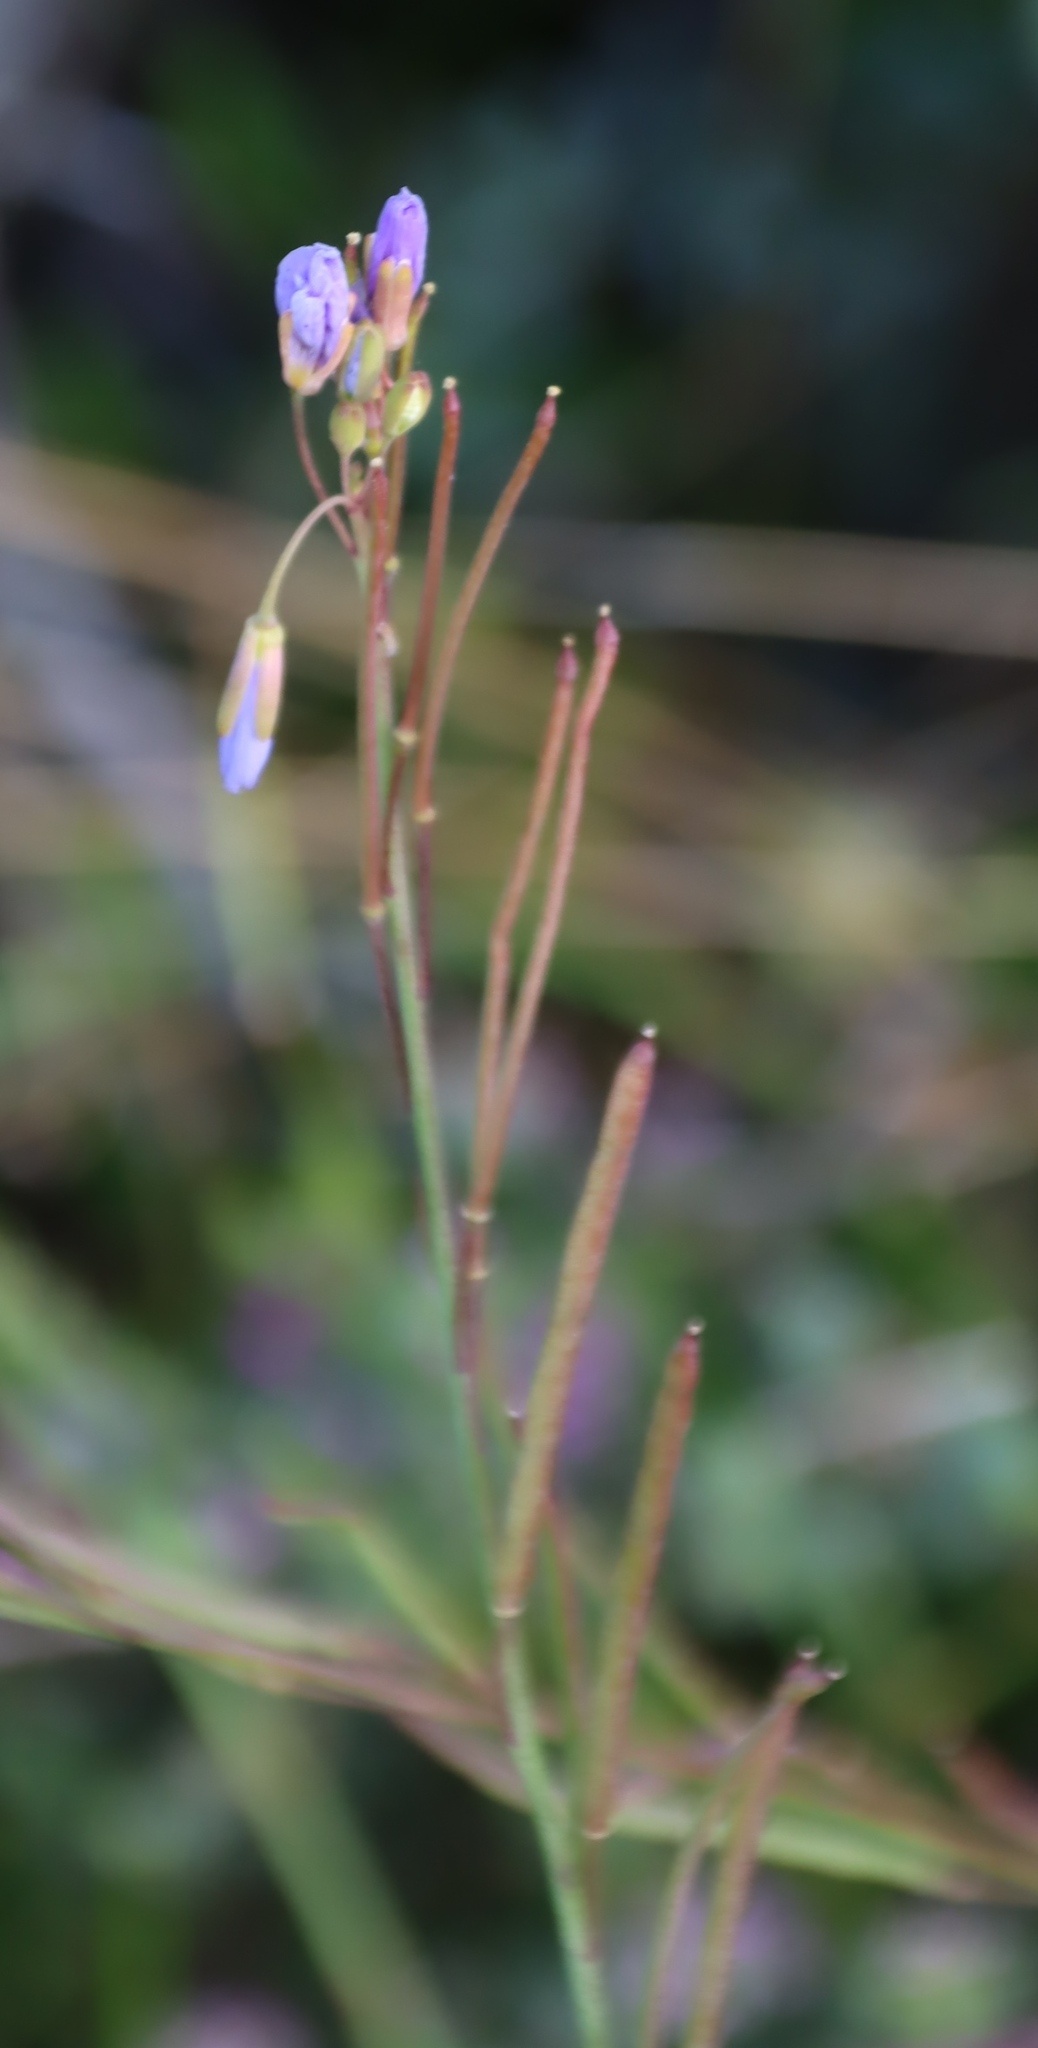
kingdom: Plantae
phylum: Tracheophyta
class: Magnoliopsida
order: Brassicales
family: Brassicaceae
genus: Heliophila
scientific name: Heliophila linearis
